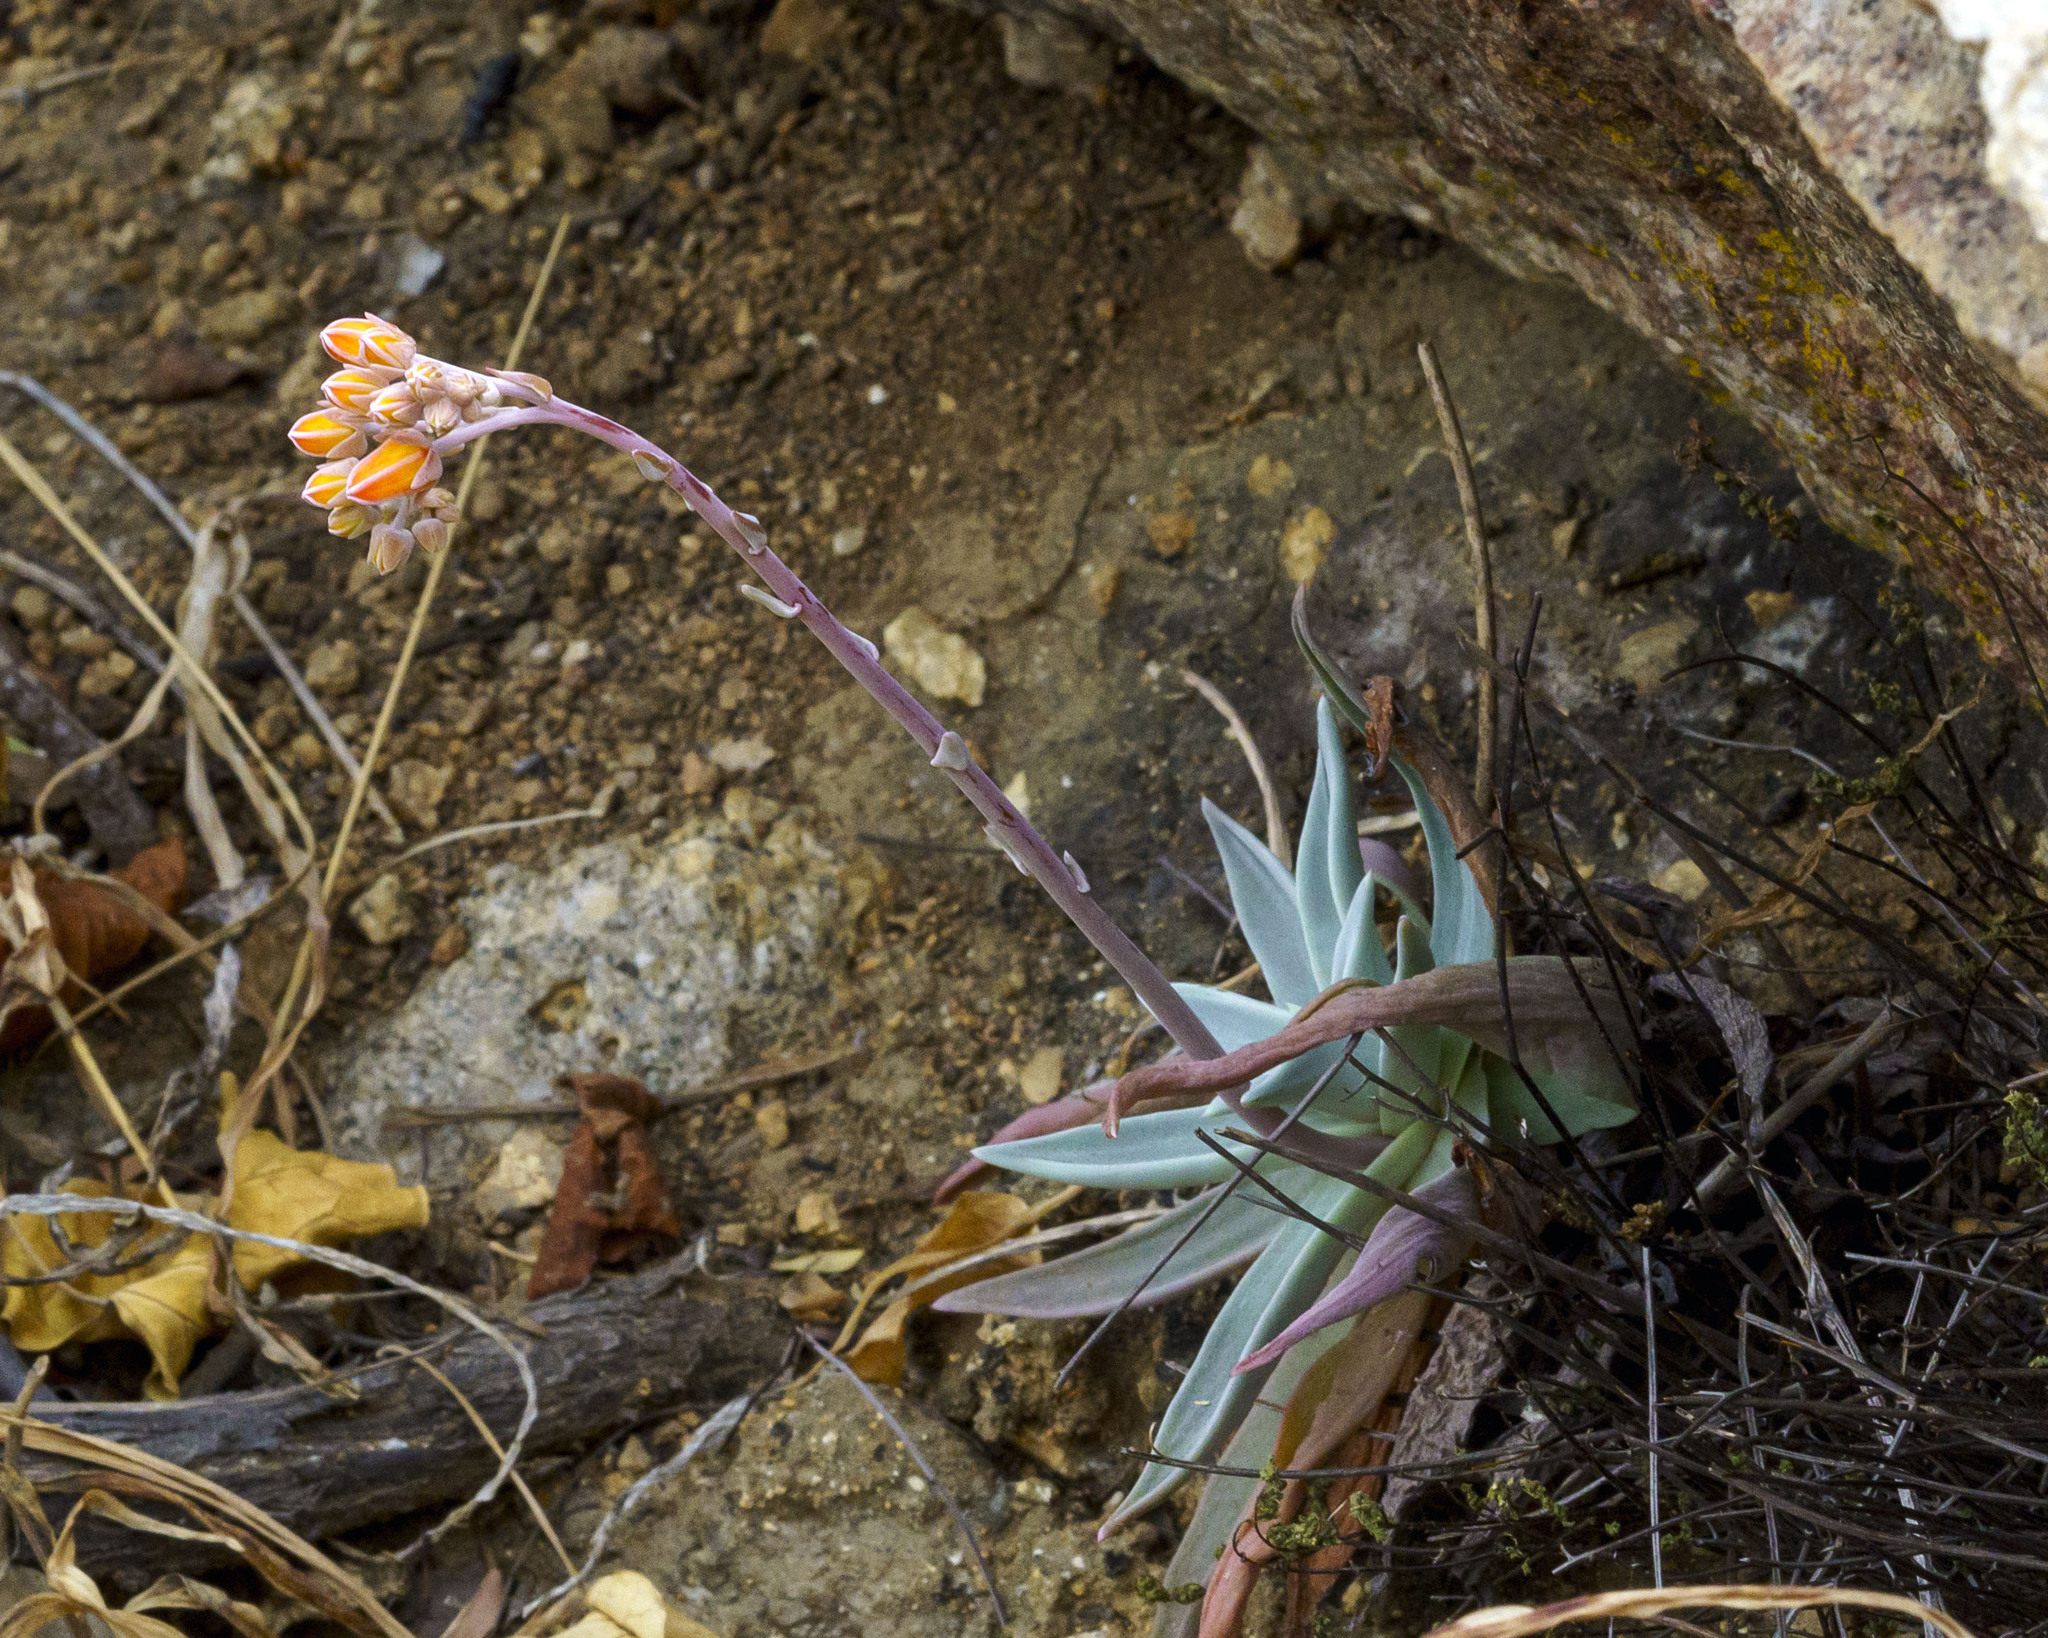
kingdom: Plantae
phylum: Tracheophyta
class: Magnoliopsida
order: Saxifragales
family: Crassulaceae
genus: Dudleya
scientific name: Dudleya nubigena
